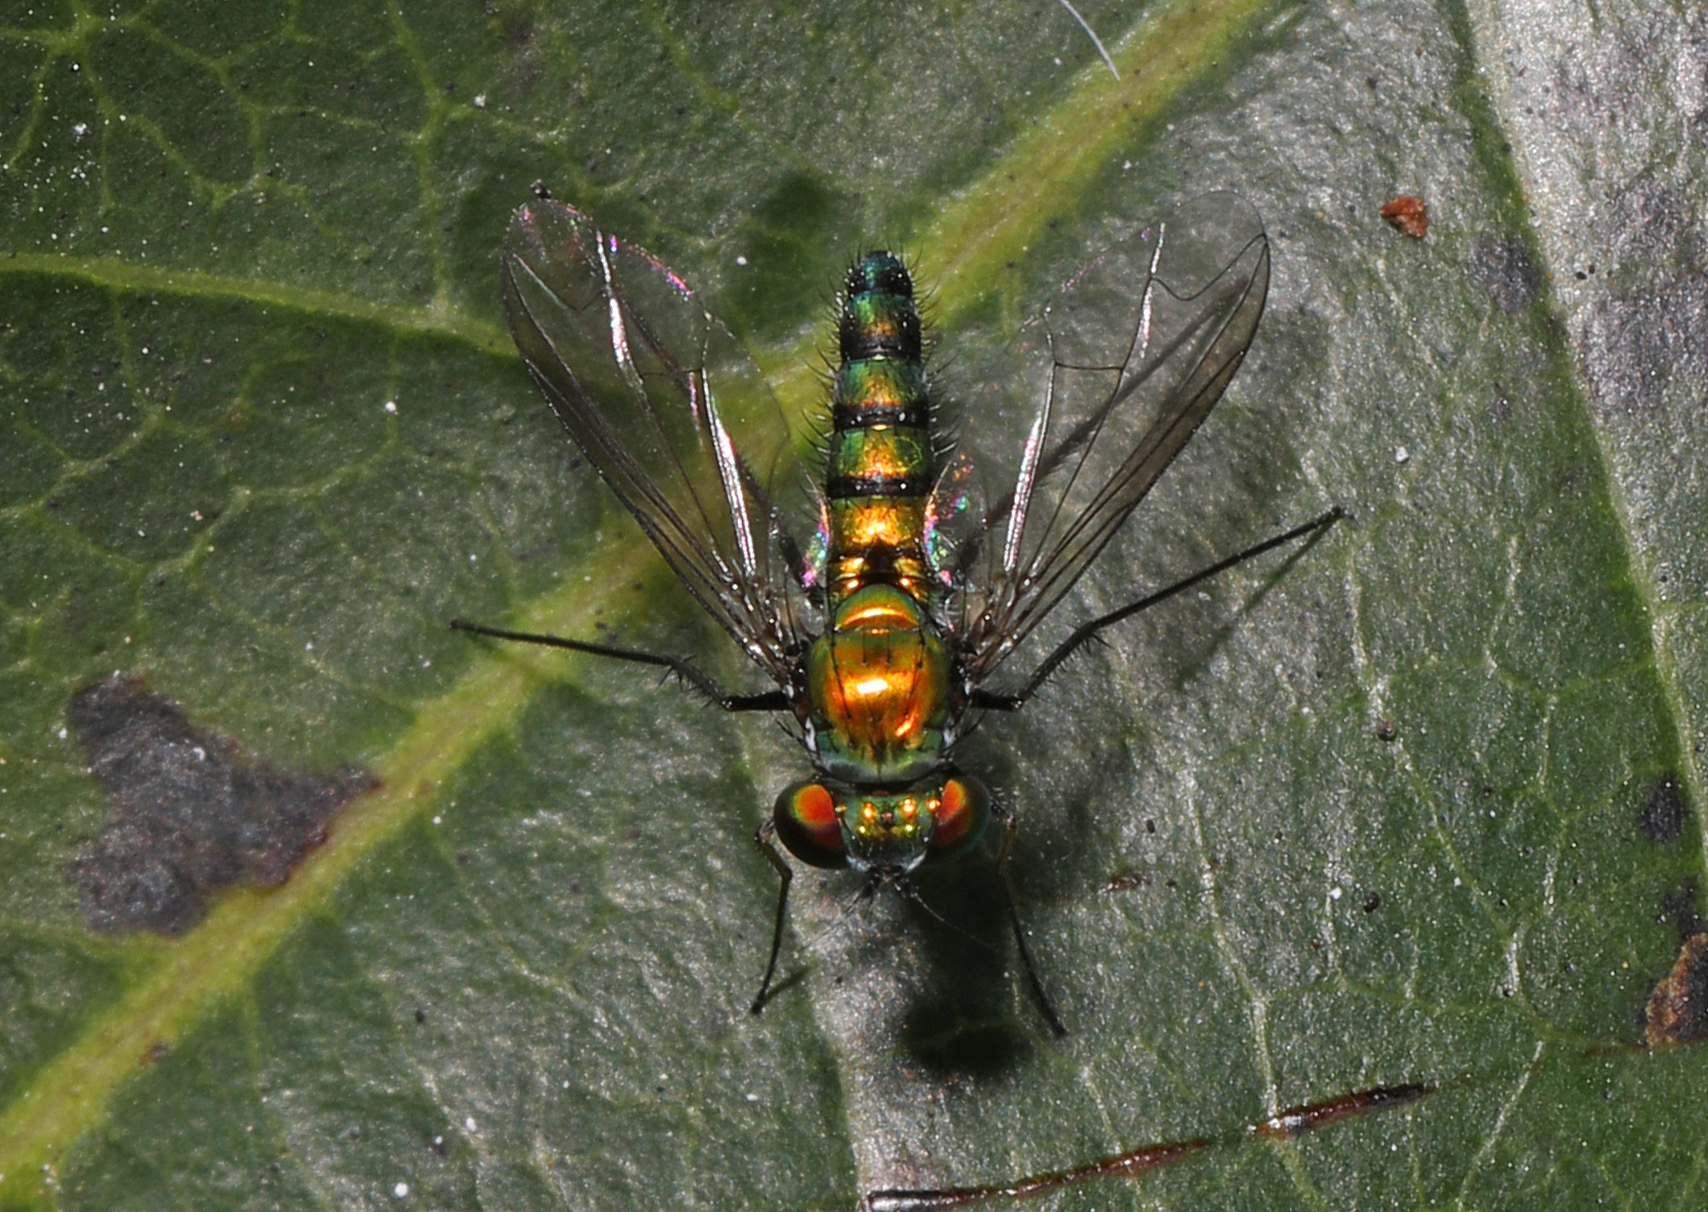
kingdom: Animalia
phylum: Arthropoda
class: Insecta
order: Diptera
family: Dolichopodidae
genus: Condylostylus
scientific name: Condylostylus longicornis
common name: Long-legged fly
